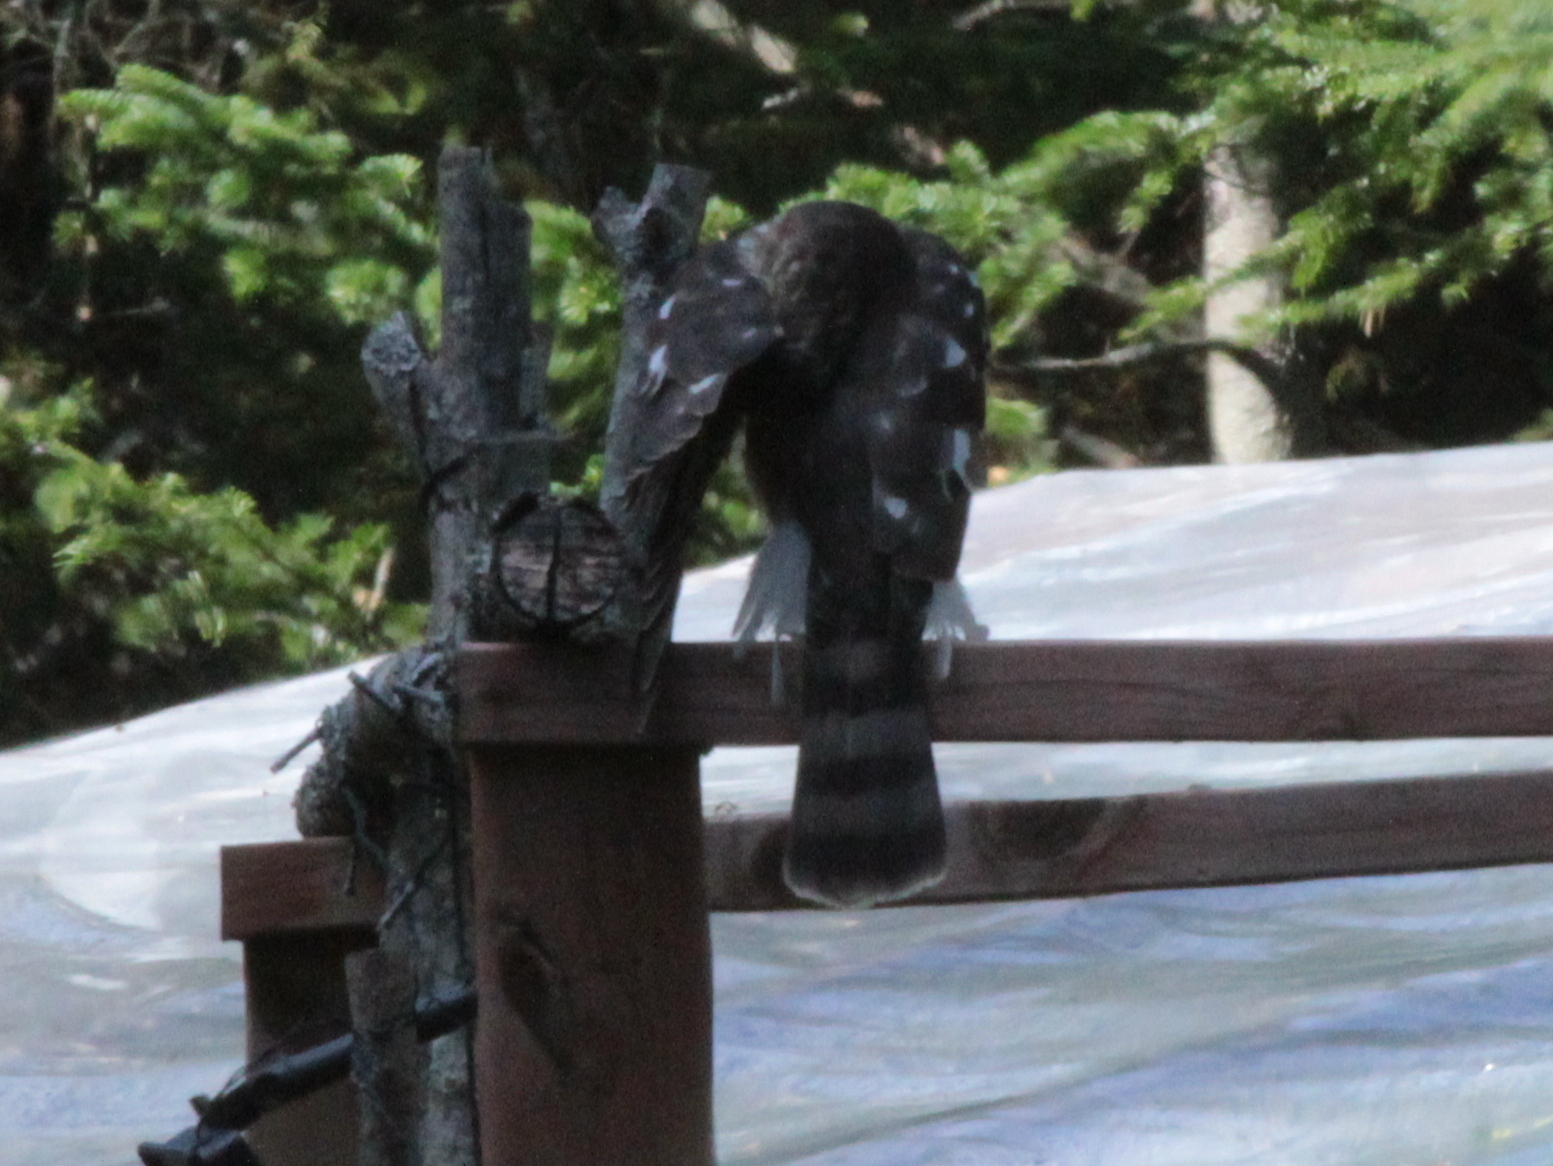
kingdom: Animalia
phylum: Chordata
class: Aves
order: Accipitriformes
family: Accipitridae
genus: Accipiter
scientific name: Accipiter striatus
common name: Sharp-shinned hawk
